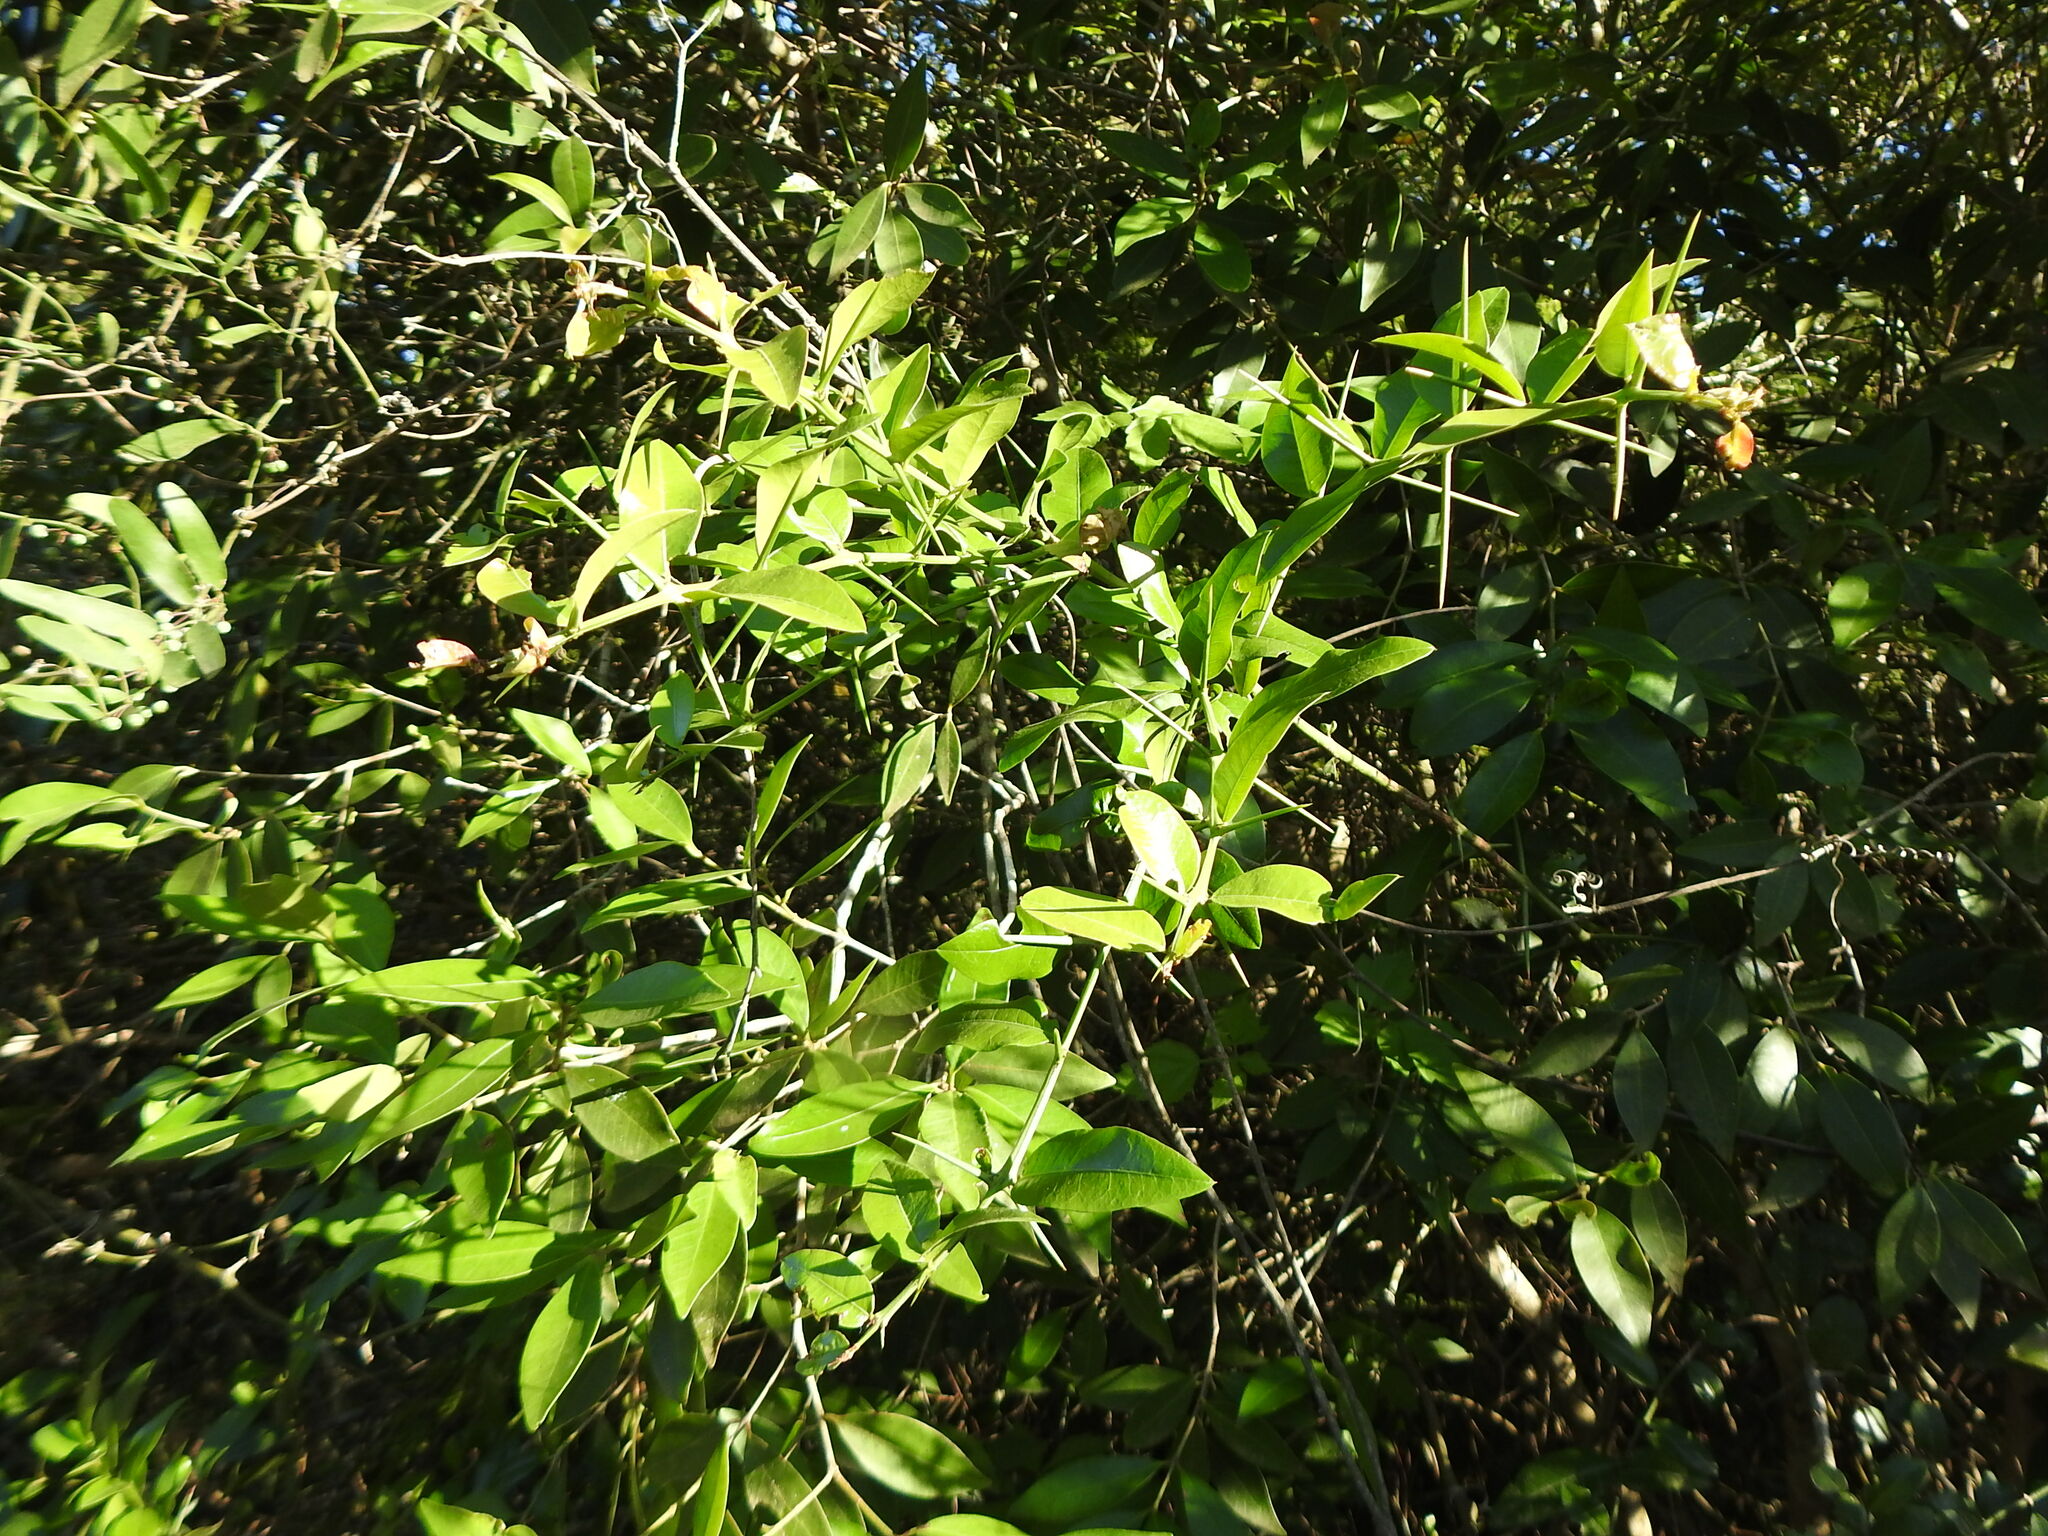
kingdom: Plantae
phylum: Tracheophyta
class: Magnoliopsida
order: Rosales
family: Rhamnaceae
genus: Scutia
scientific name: Scutia buxifolia
